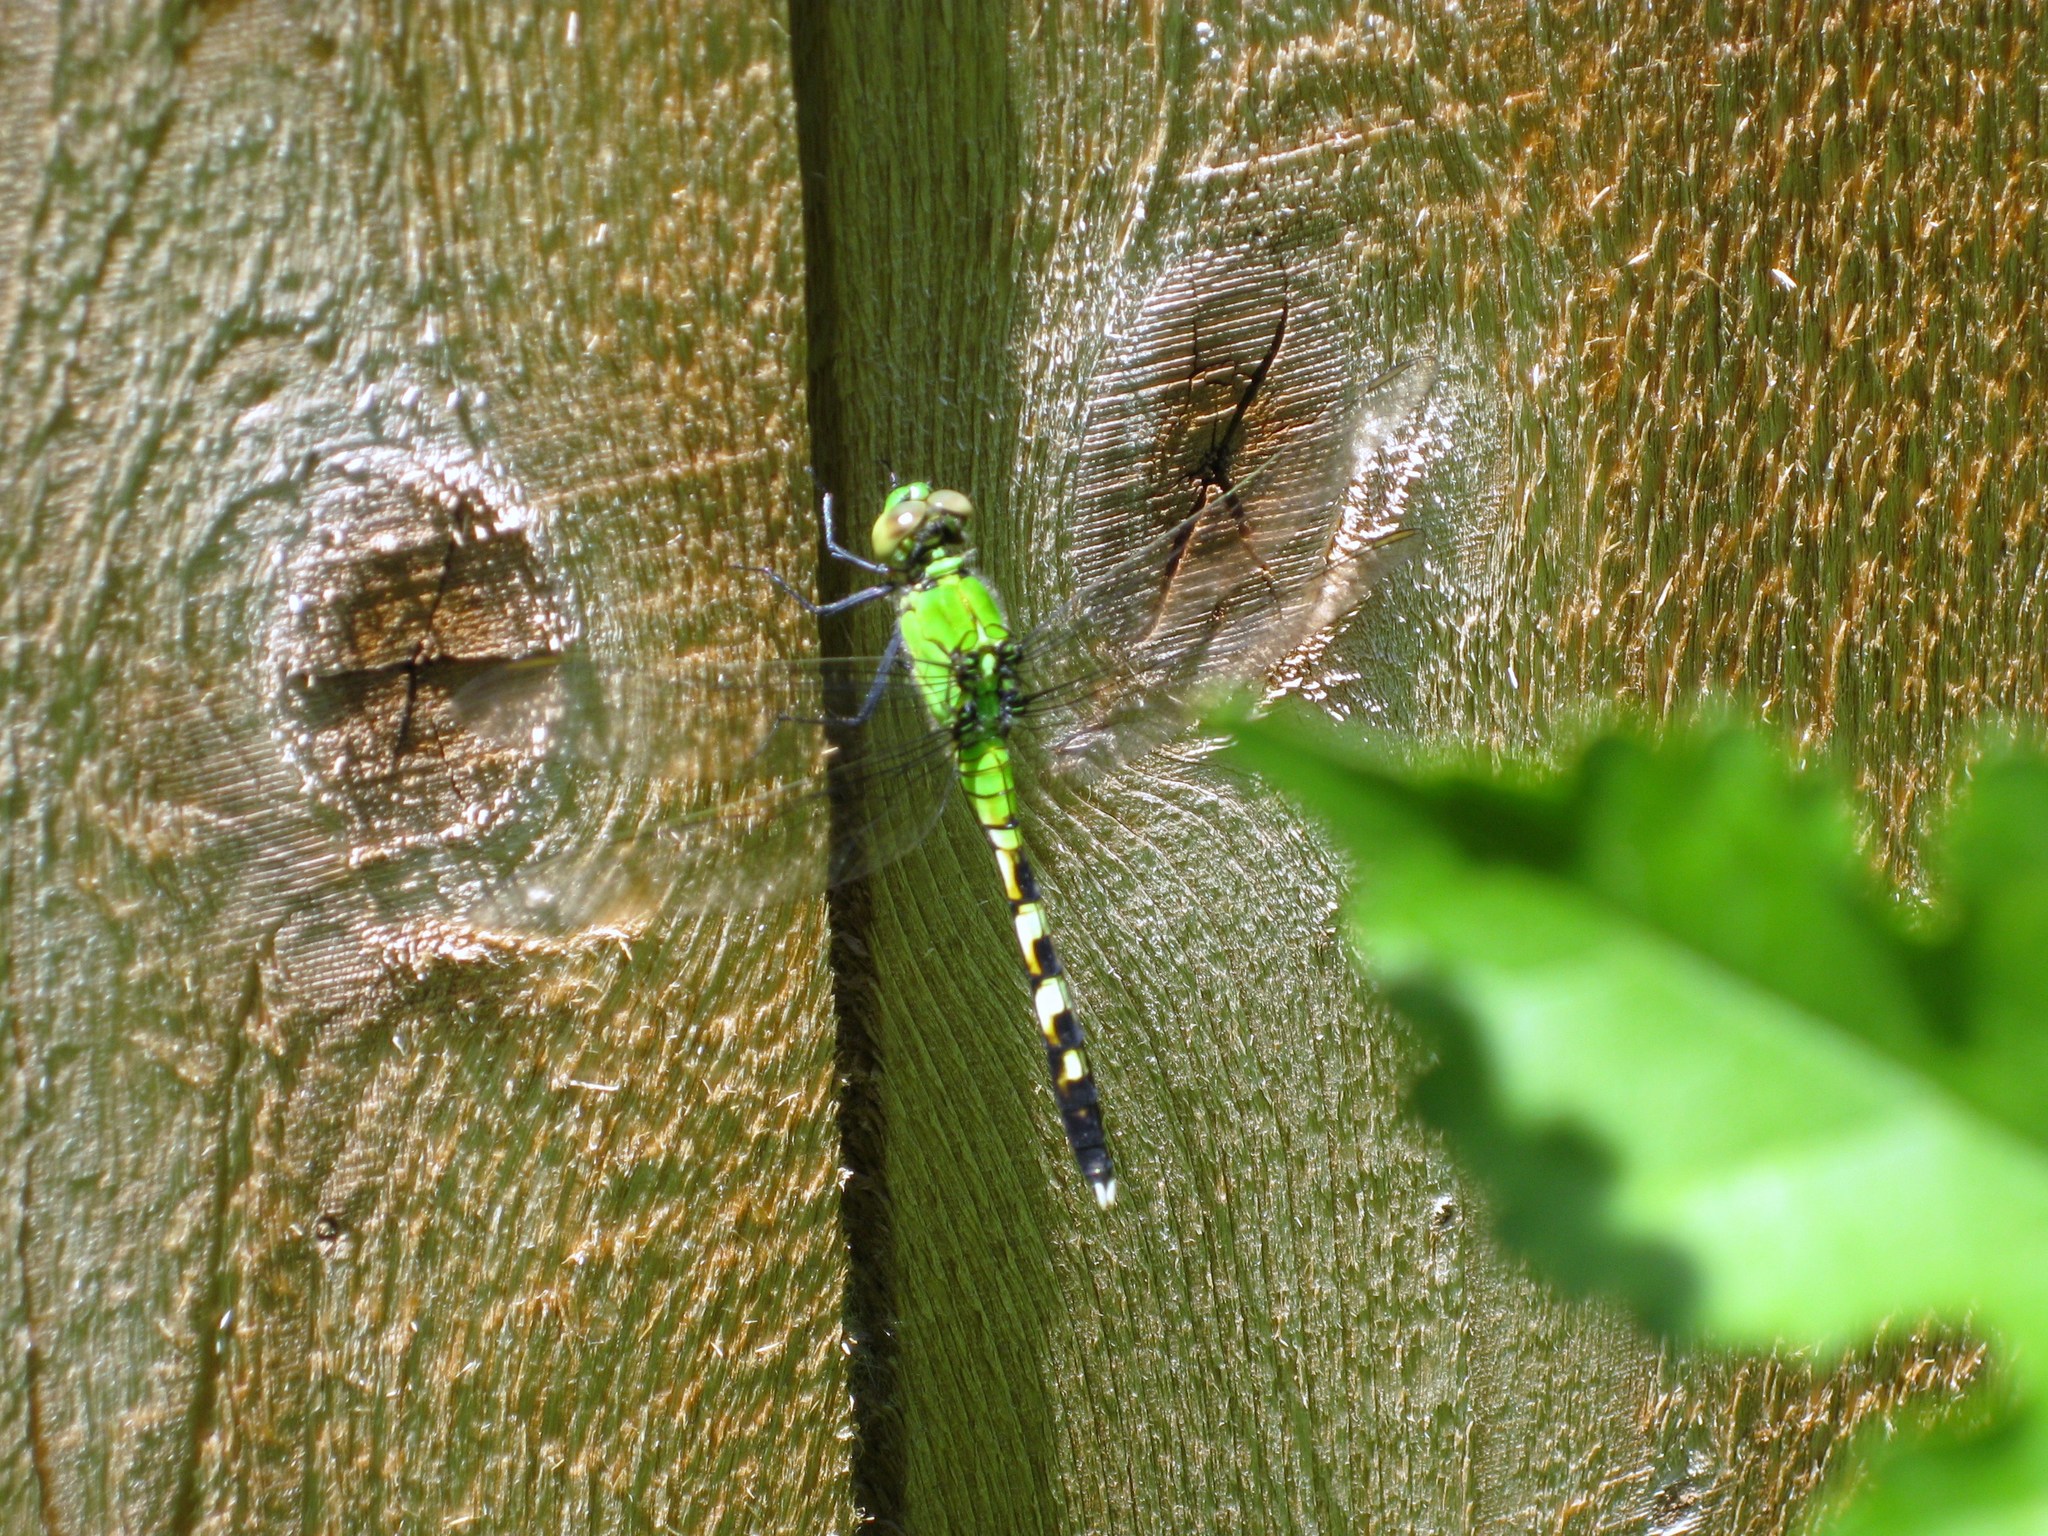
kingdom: Animalia
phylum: Arthropoda
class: Insecta
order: Odonata
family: Libellulidae
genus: Erythemis
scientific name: Erythemis simplicicollis
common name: Eastern pondhawk
